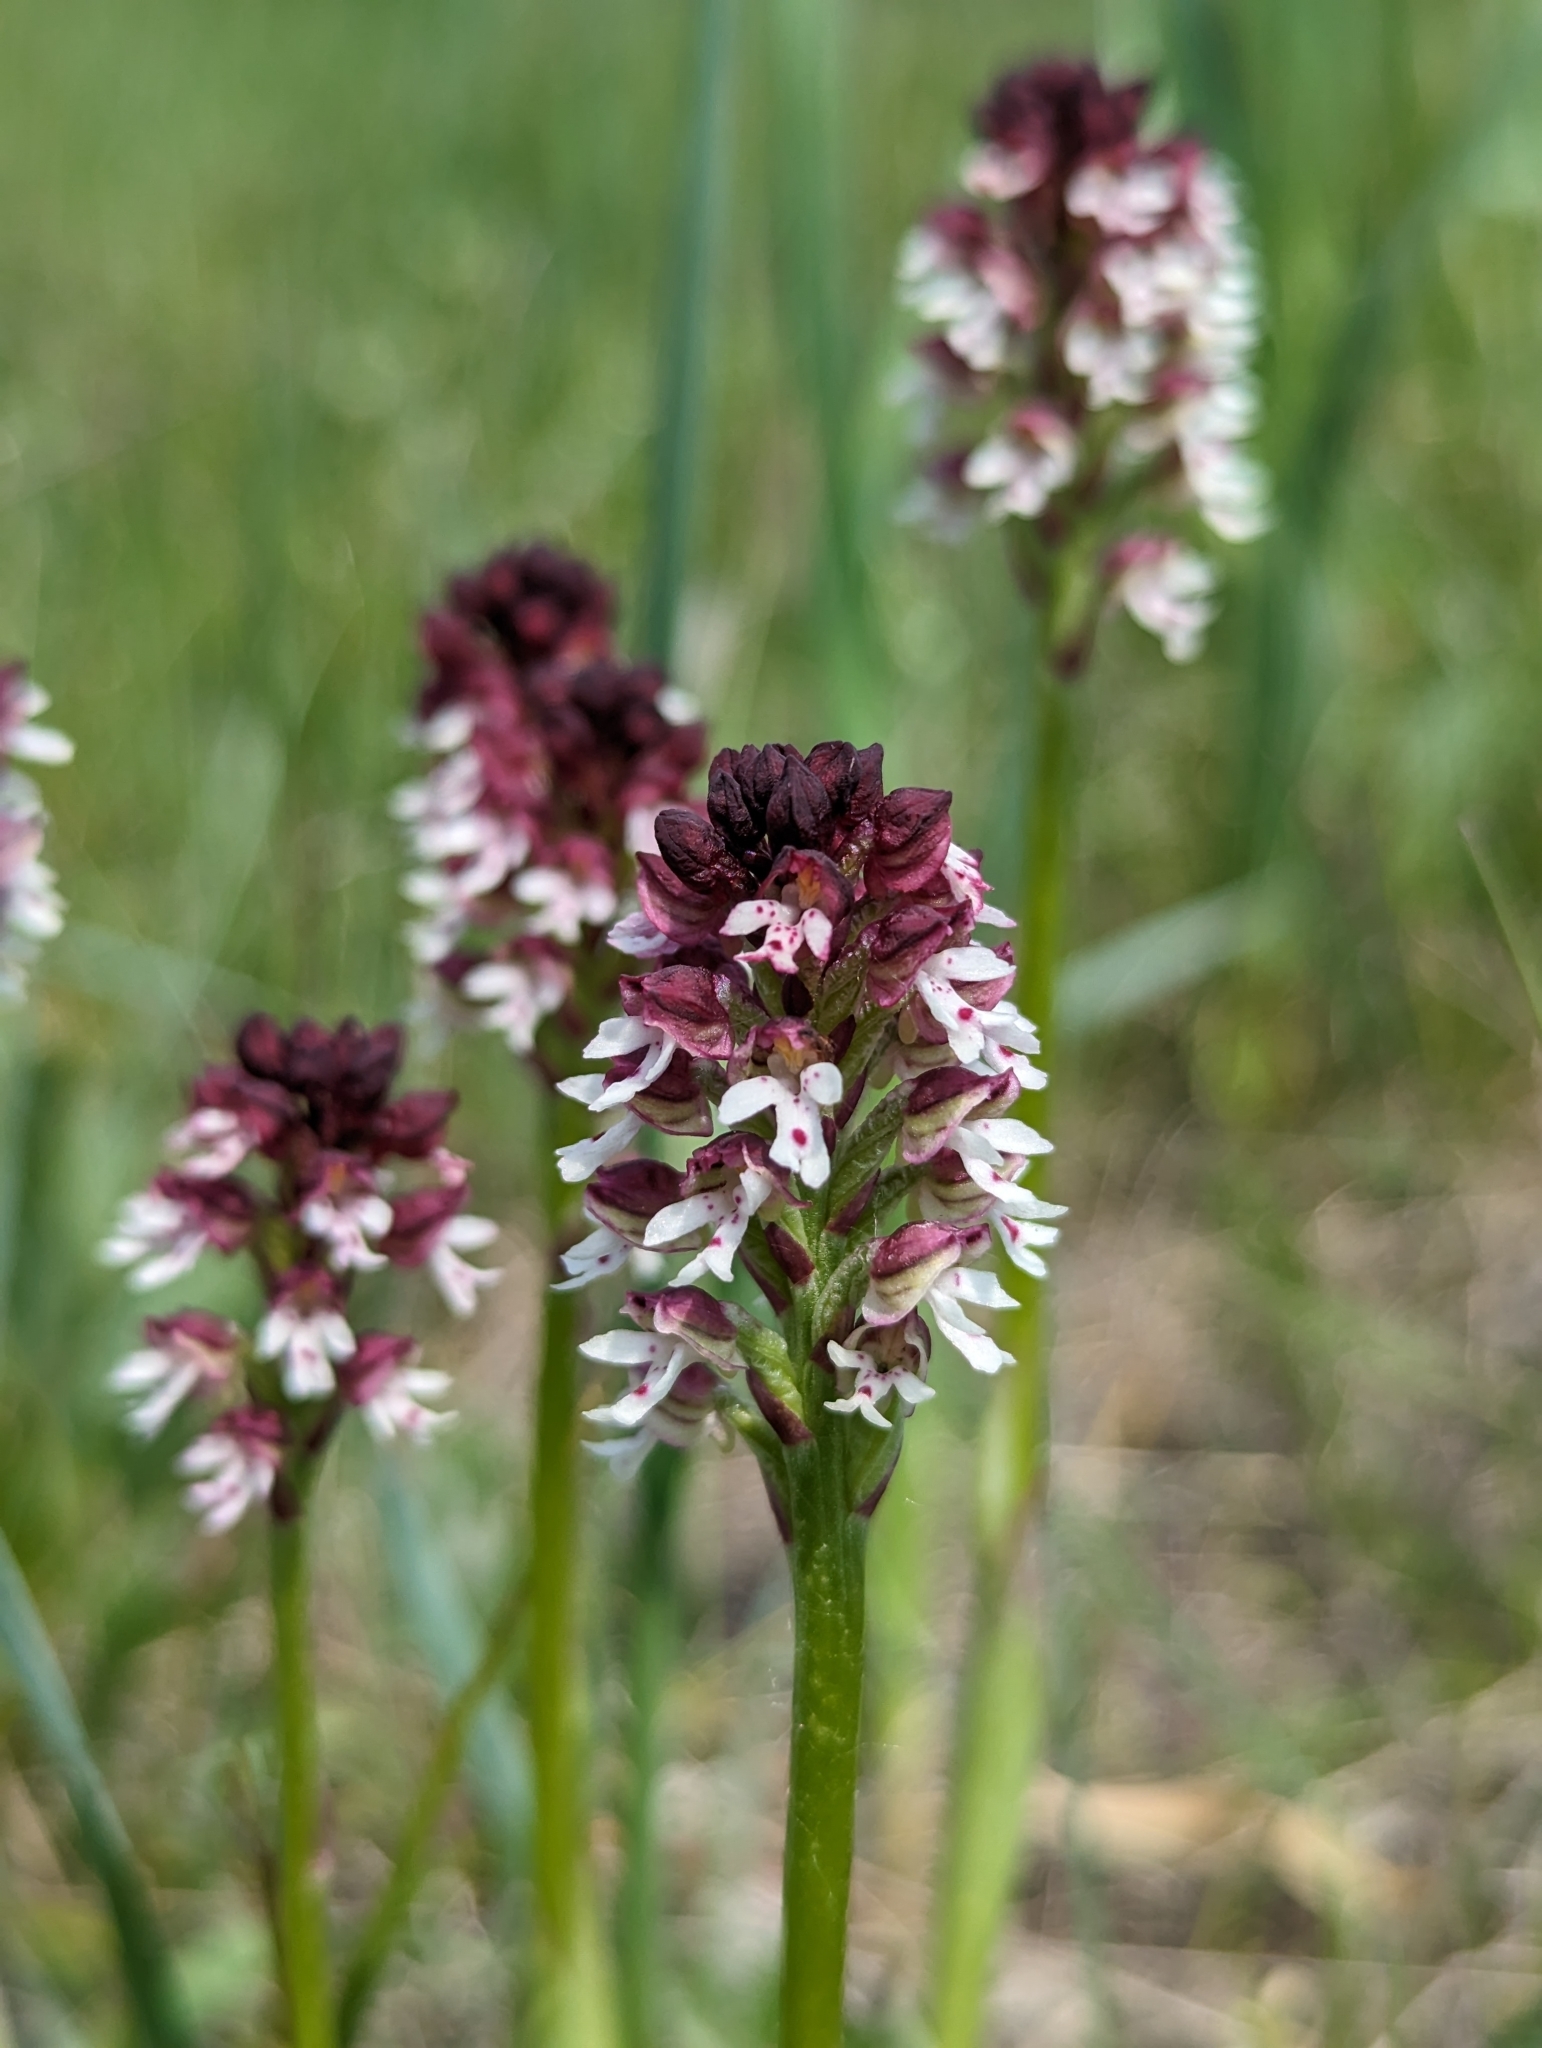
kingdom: Plantae
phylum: Tracheophyta
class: Liliopsida
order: Asparagales
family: Orchidaceae
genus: Neotinea
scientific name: Neotinea ustulata
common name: Burnt orchid
